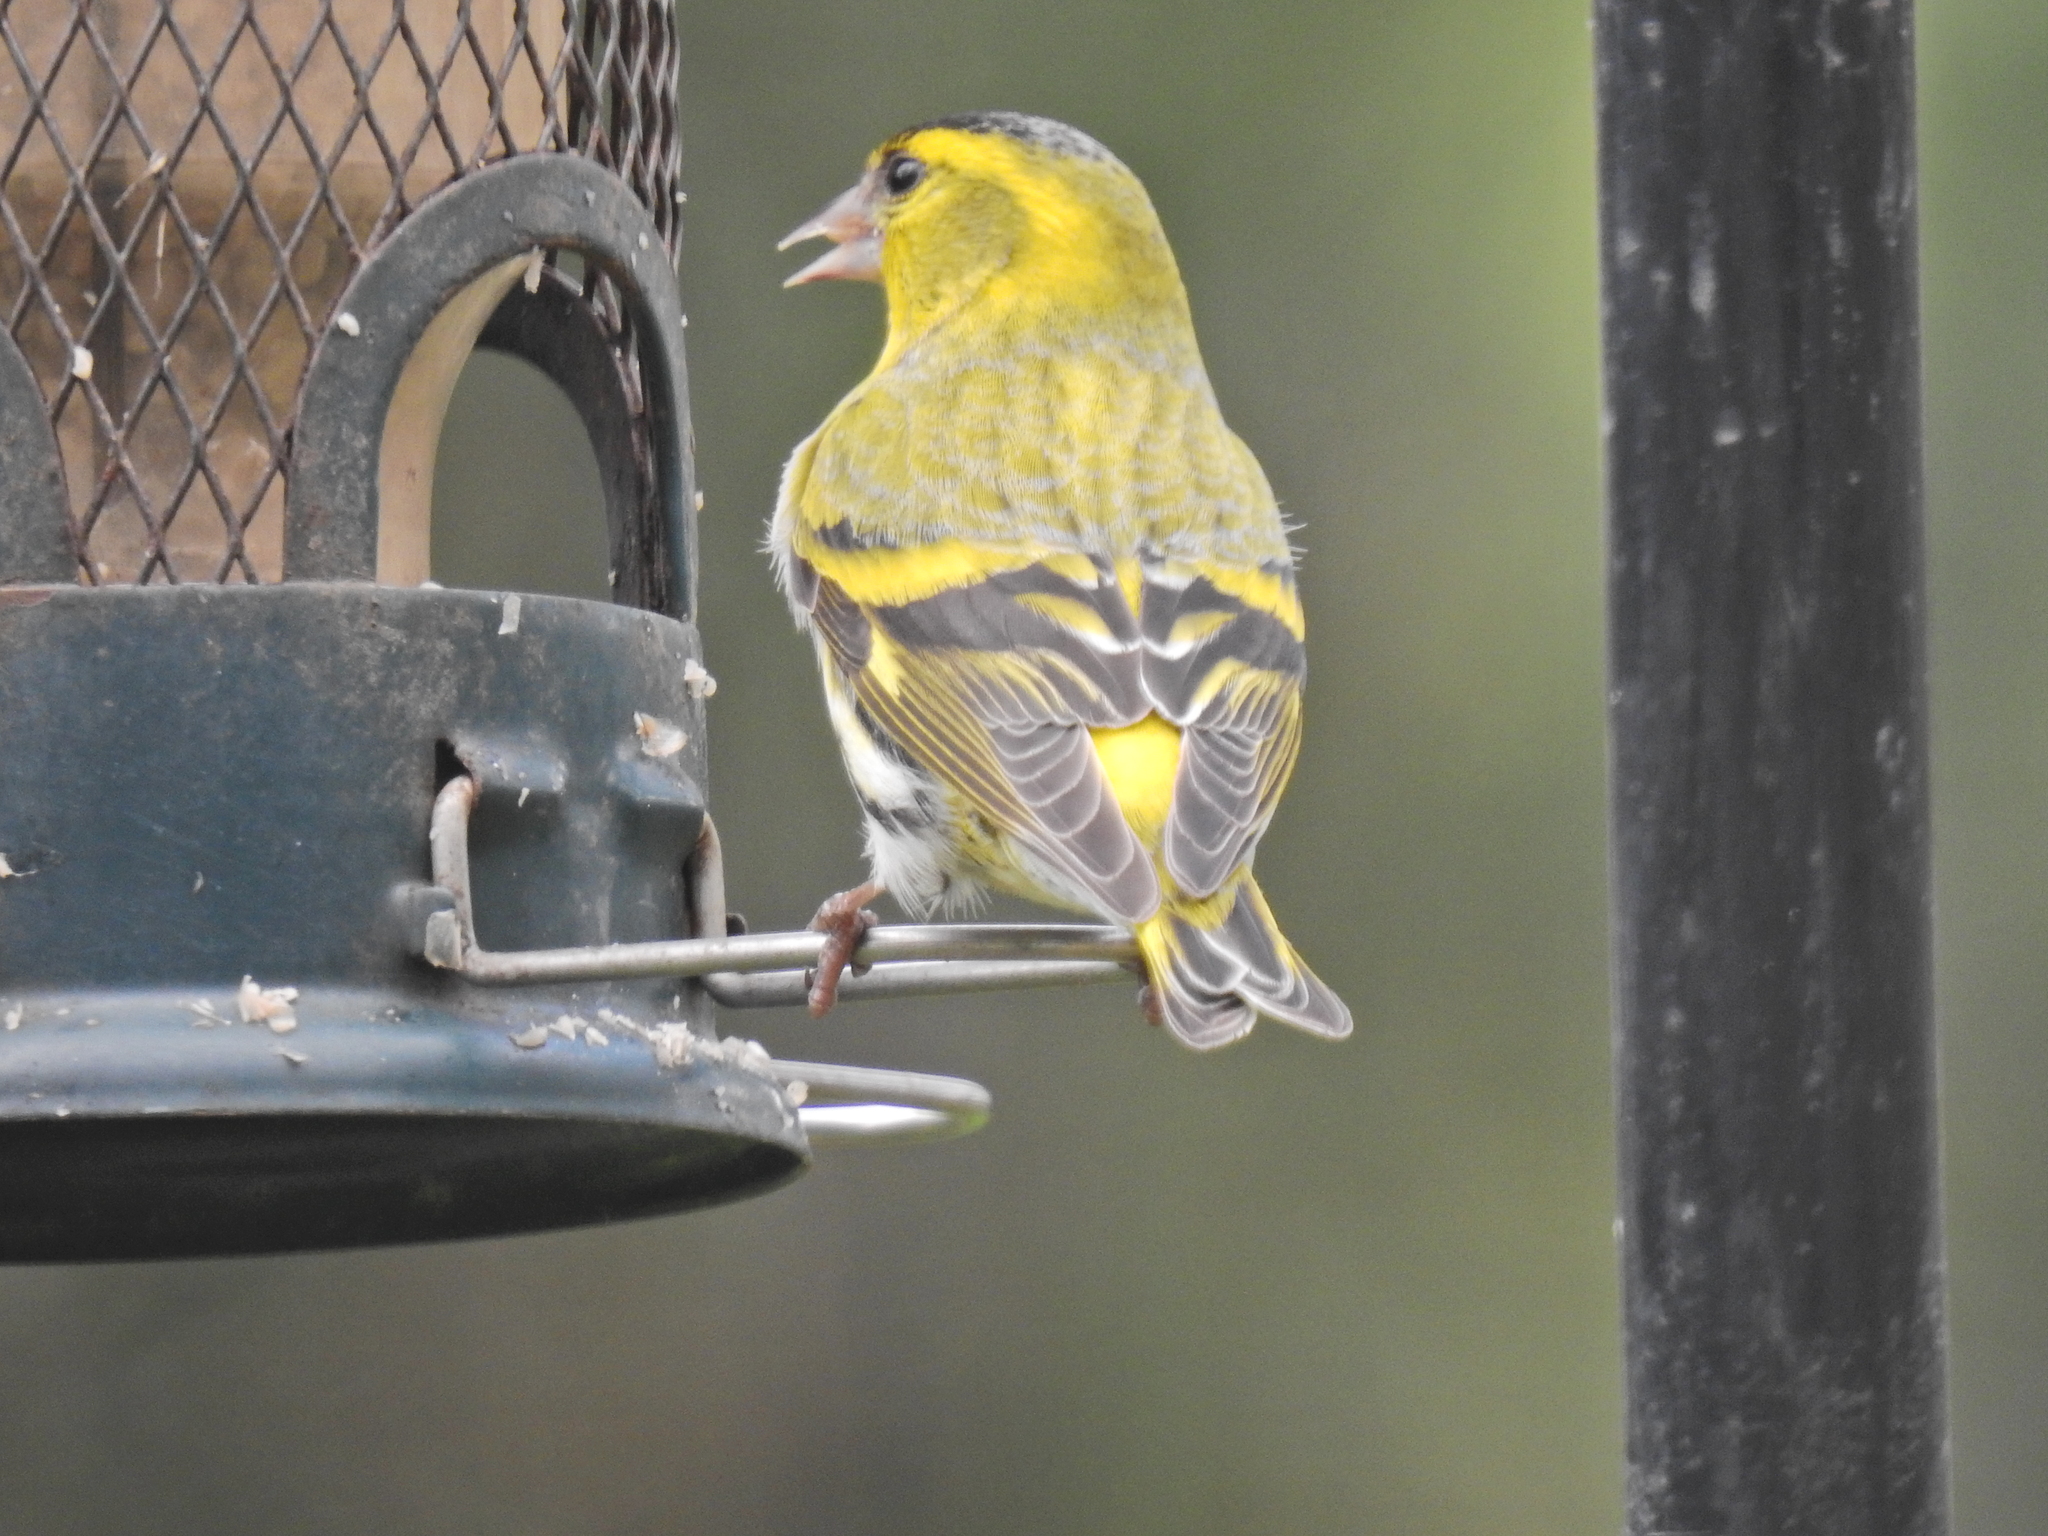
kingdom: Animalia
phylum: Chordata
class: Aves
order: Passeriformes
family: Fringillidae
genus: Spinus
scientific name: Spinus spinus
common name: Eurasian siskin
